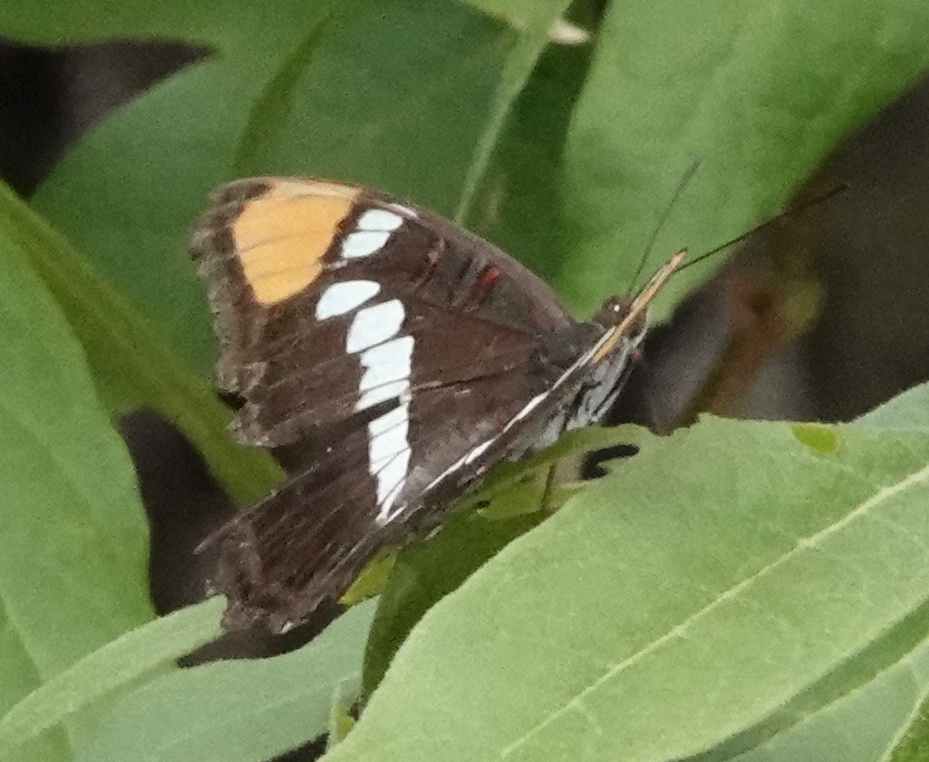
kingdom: Animalia
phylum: Arthropoda
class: Insecta
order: Lepidoptera
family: Nymphalidae
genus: Limenitis
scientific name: Limenitis bredowii
